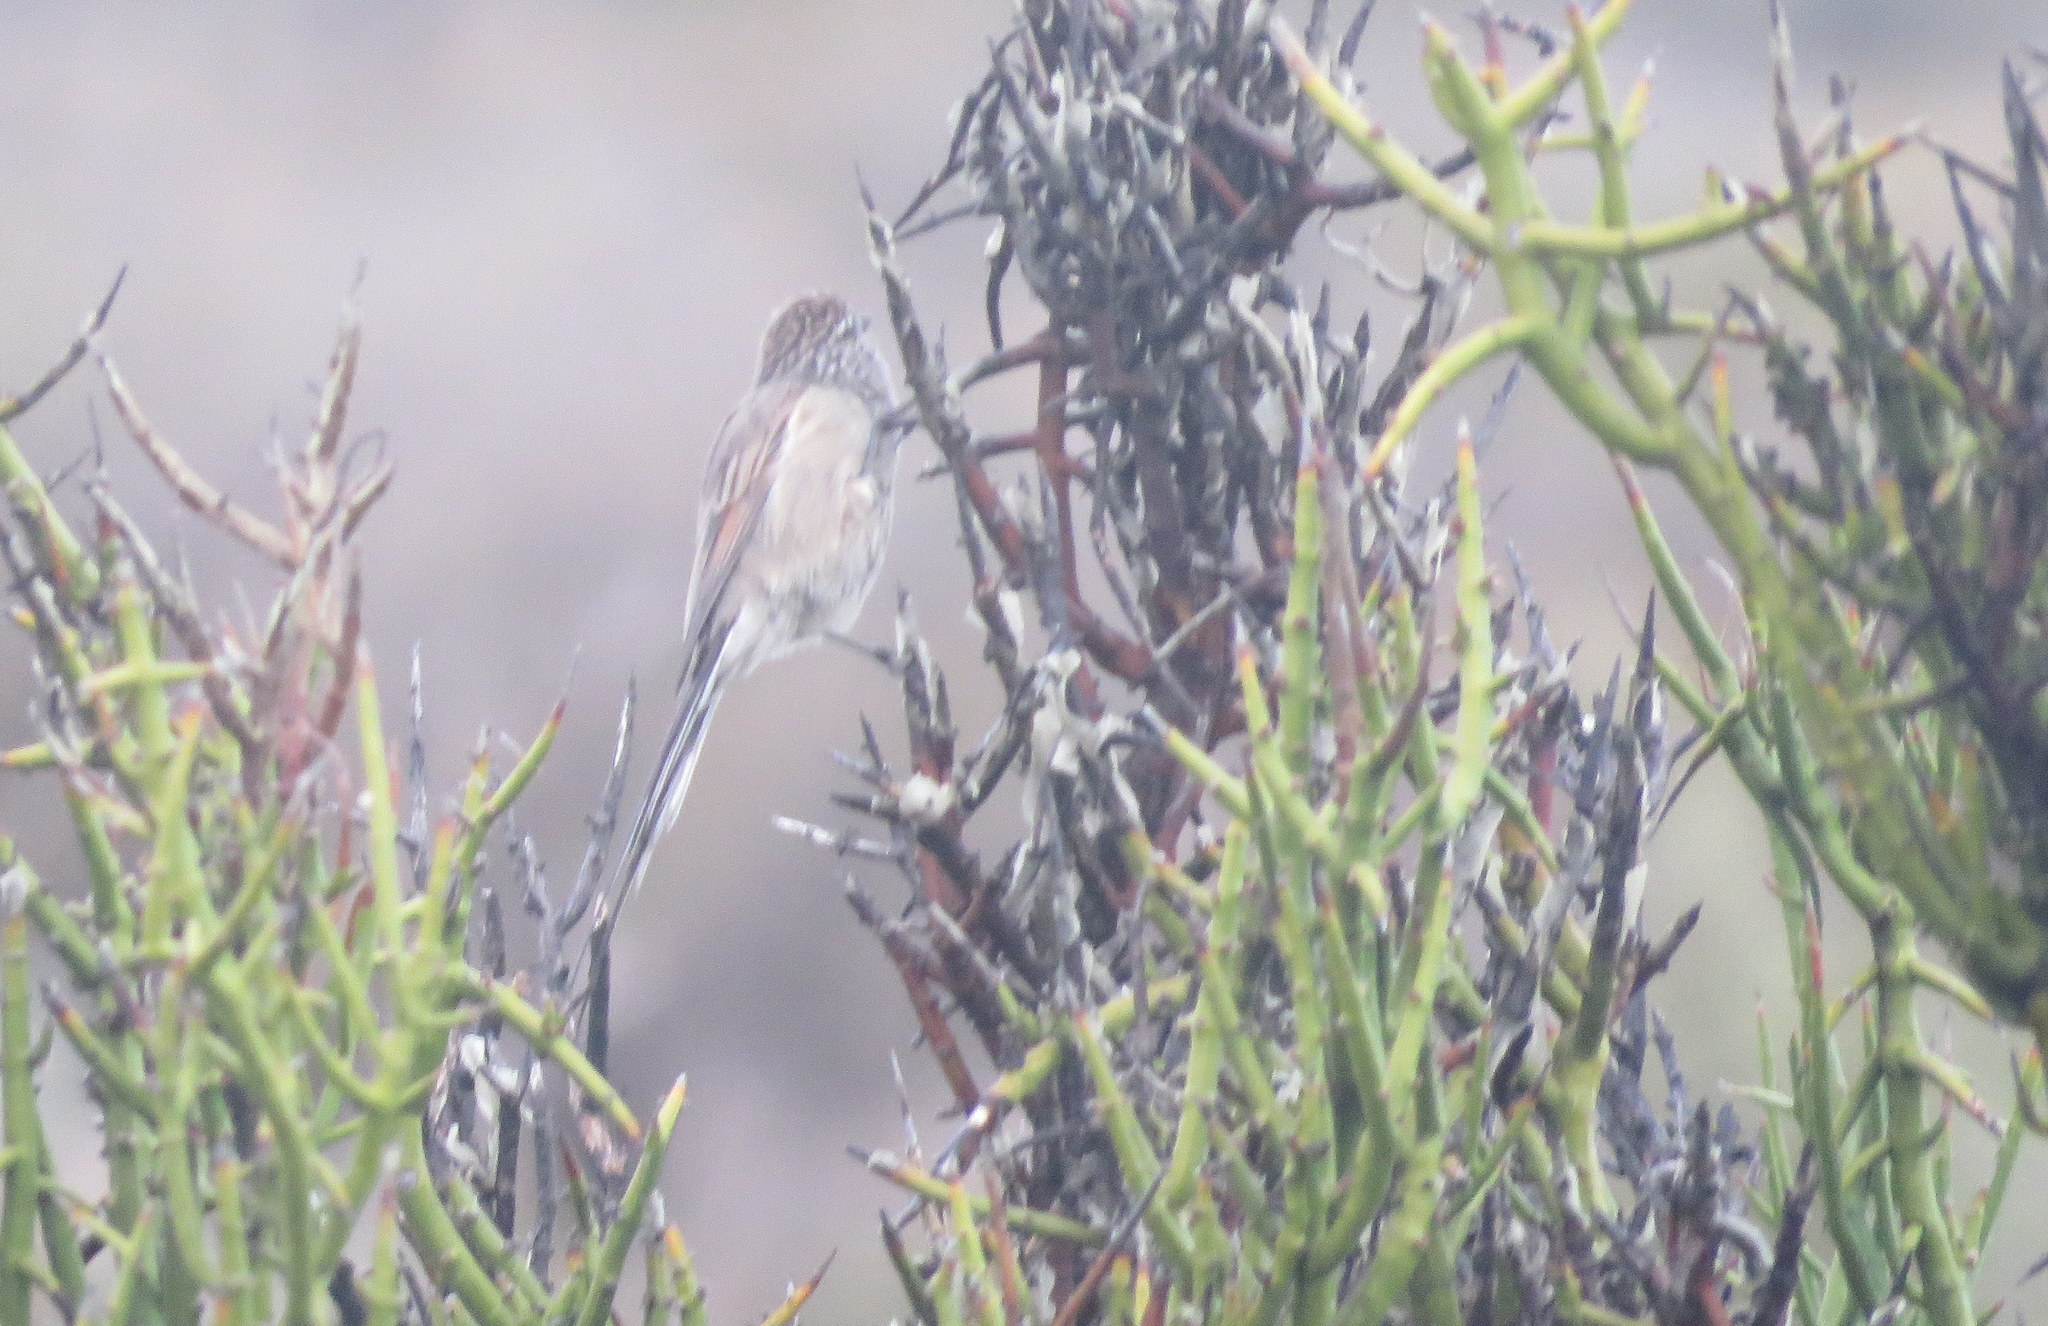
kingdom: Animalia
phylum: Chordata
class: Aves
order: Passeriformes
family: Furnariidae
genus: Leptasthenura
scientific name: Leptasthenura aegithaloides
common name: Plain-mantled tit-spinetail
